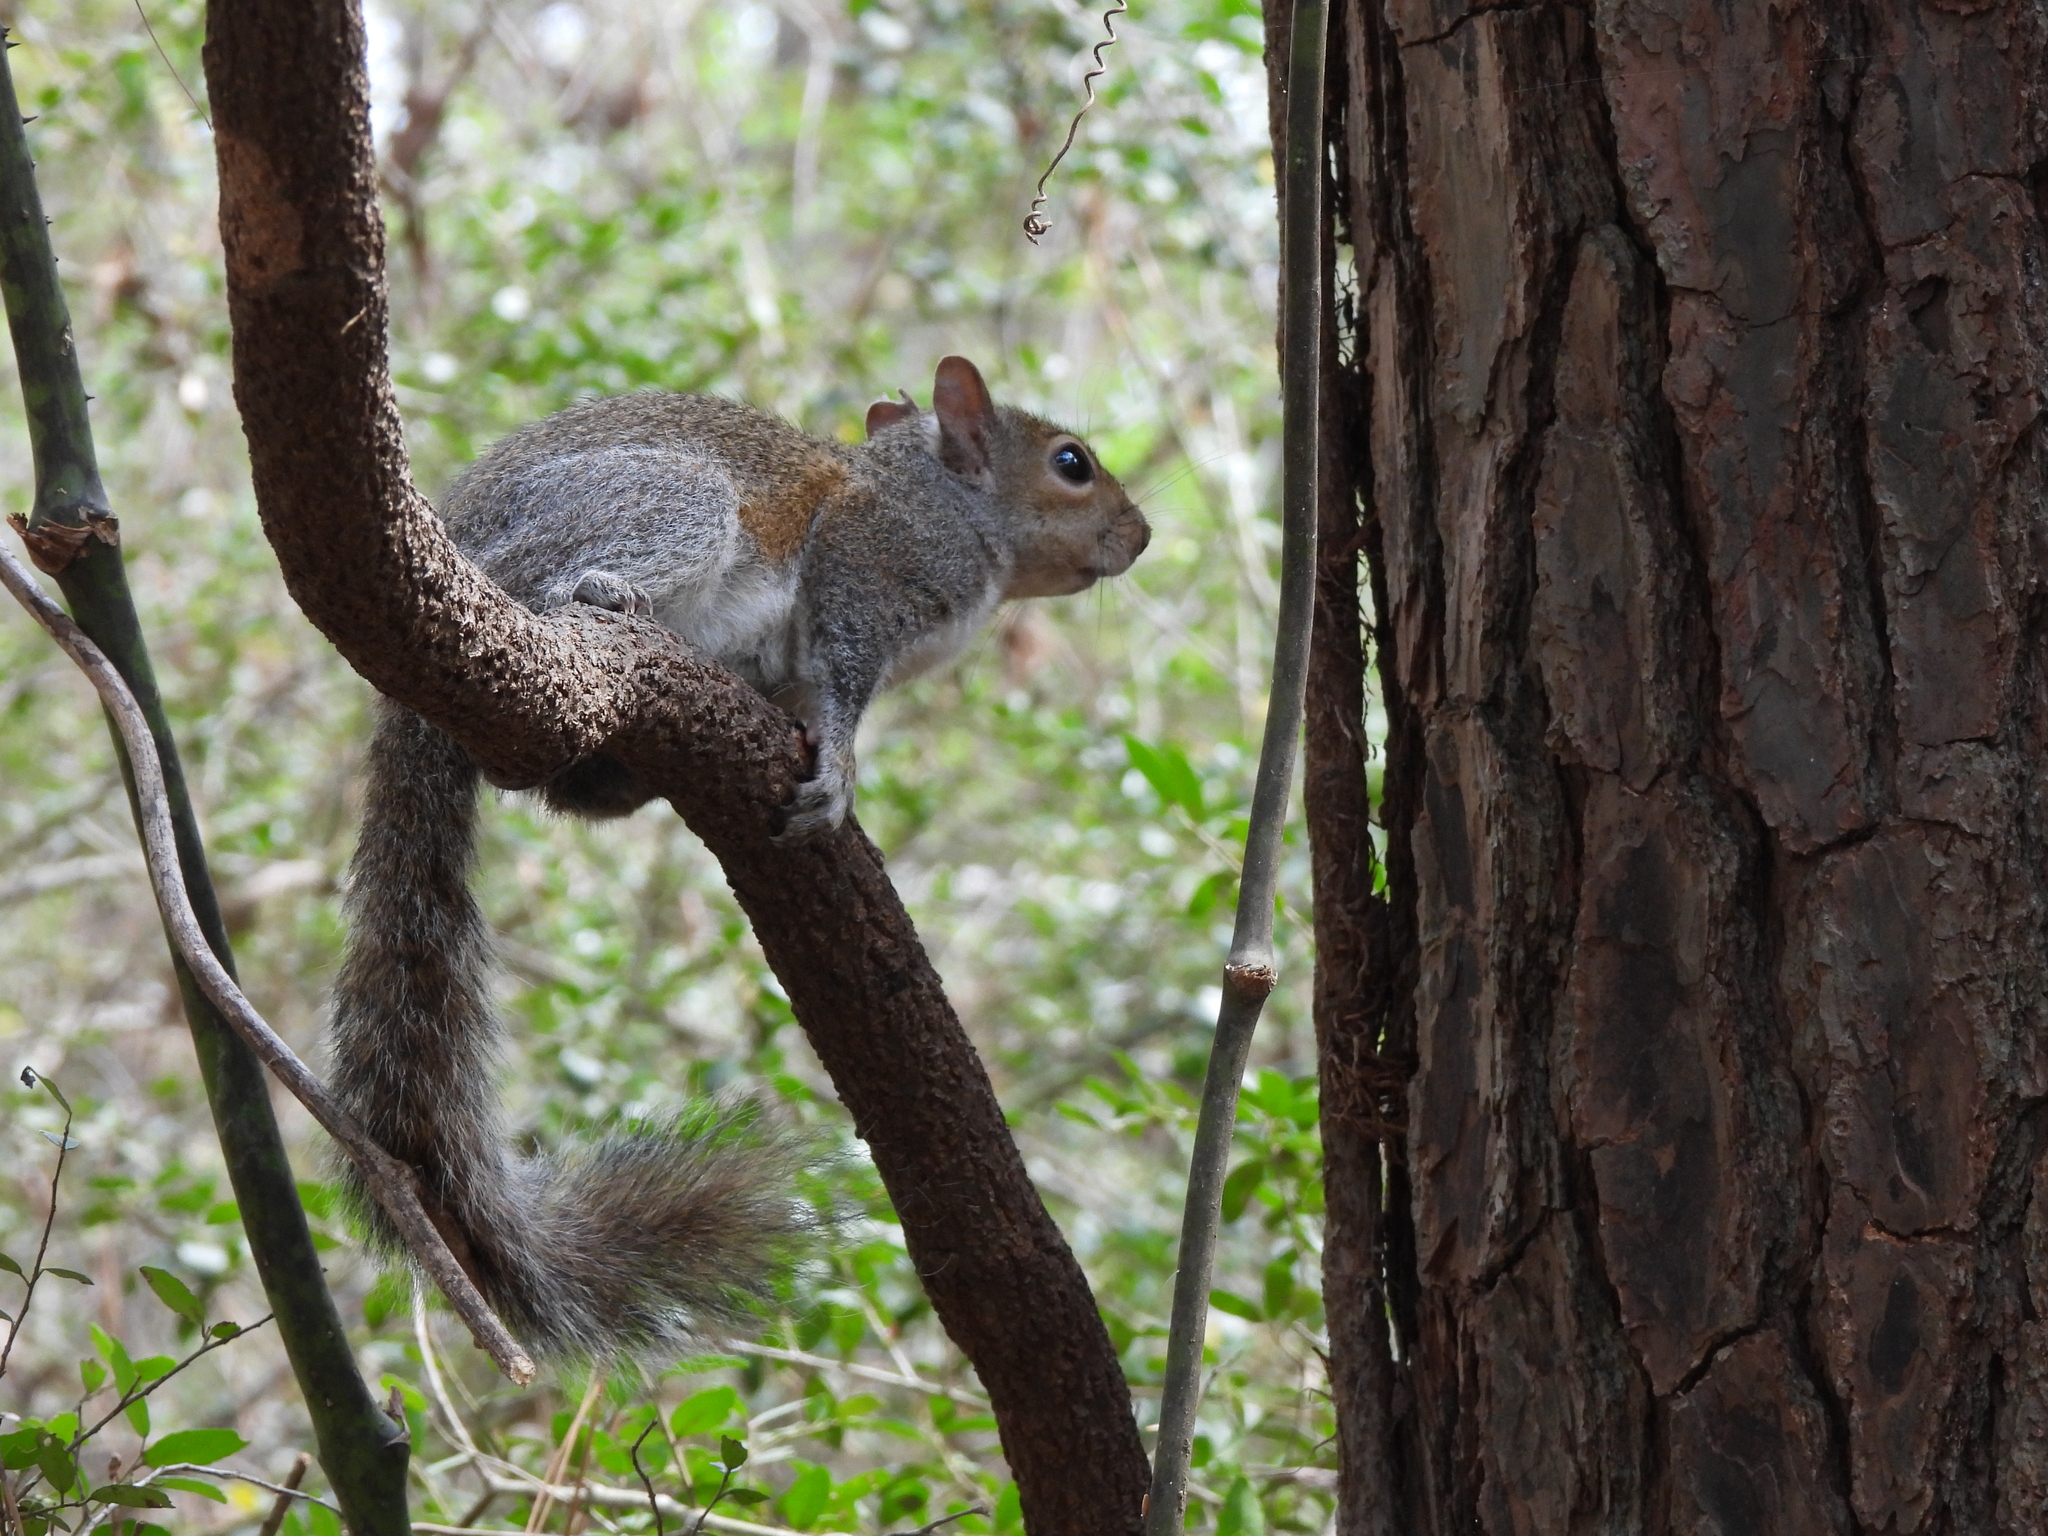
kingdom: Animalia
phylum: Chordata
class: Mammalia
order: Rodentia
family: Sciuridae
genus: Sciurus
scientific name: Sciurus carolinensis
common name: Eastern gray squirrel
